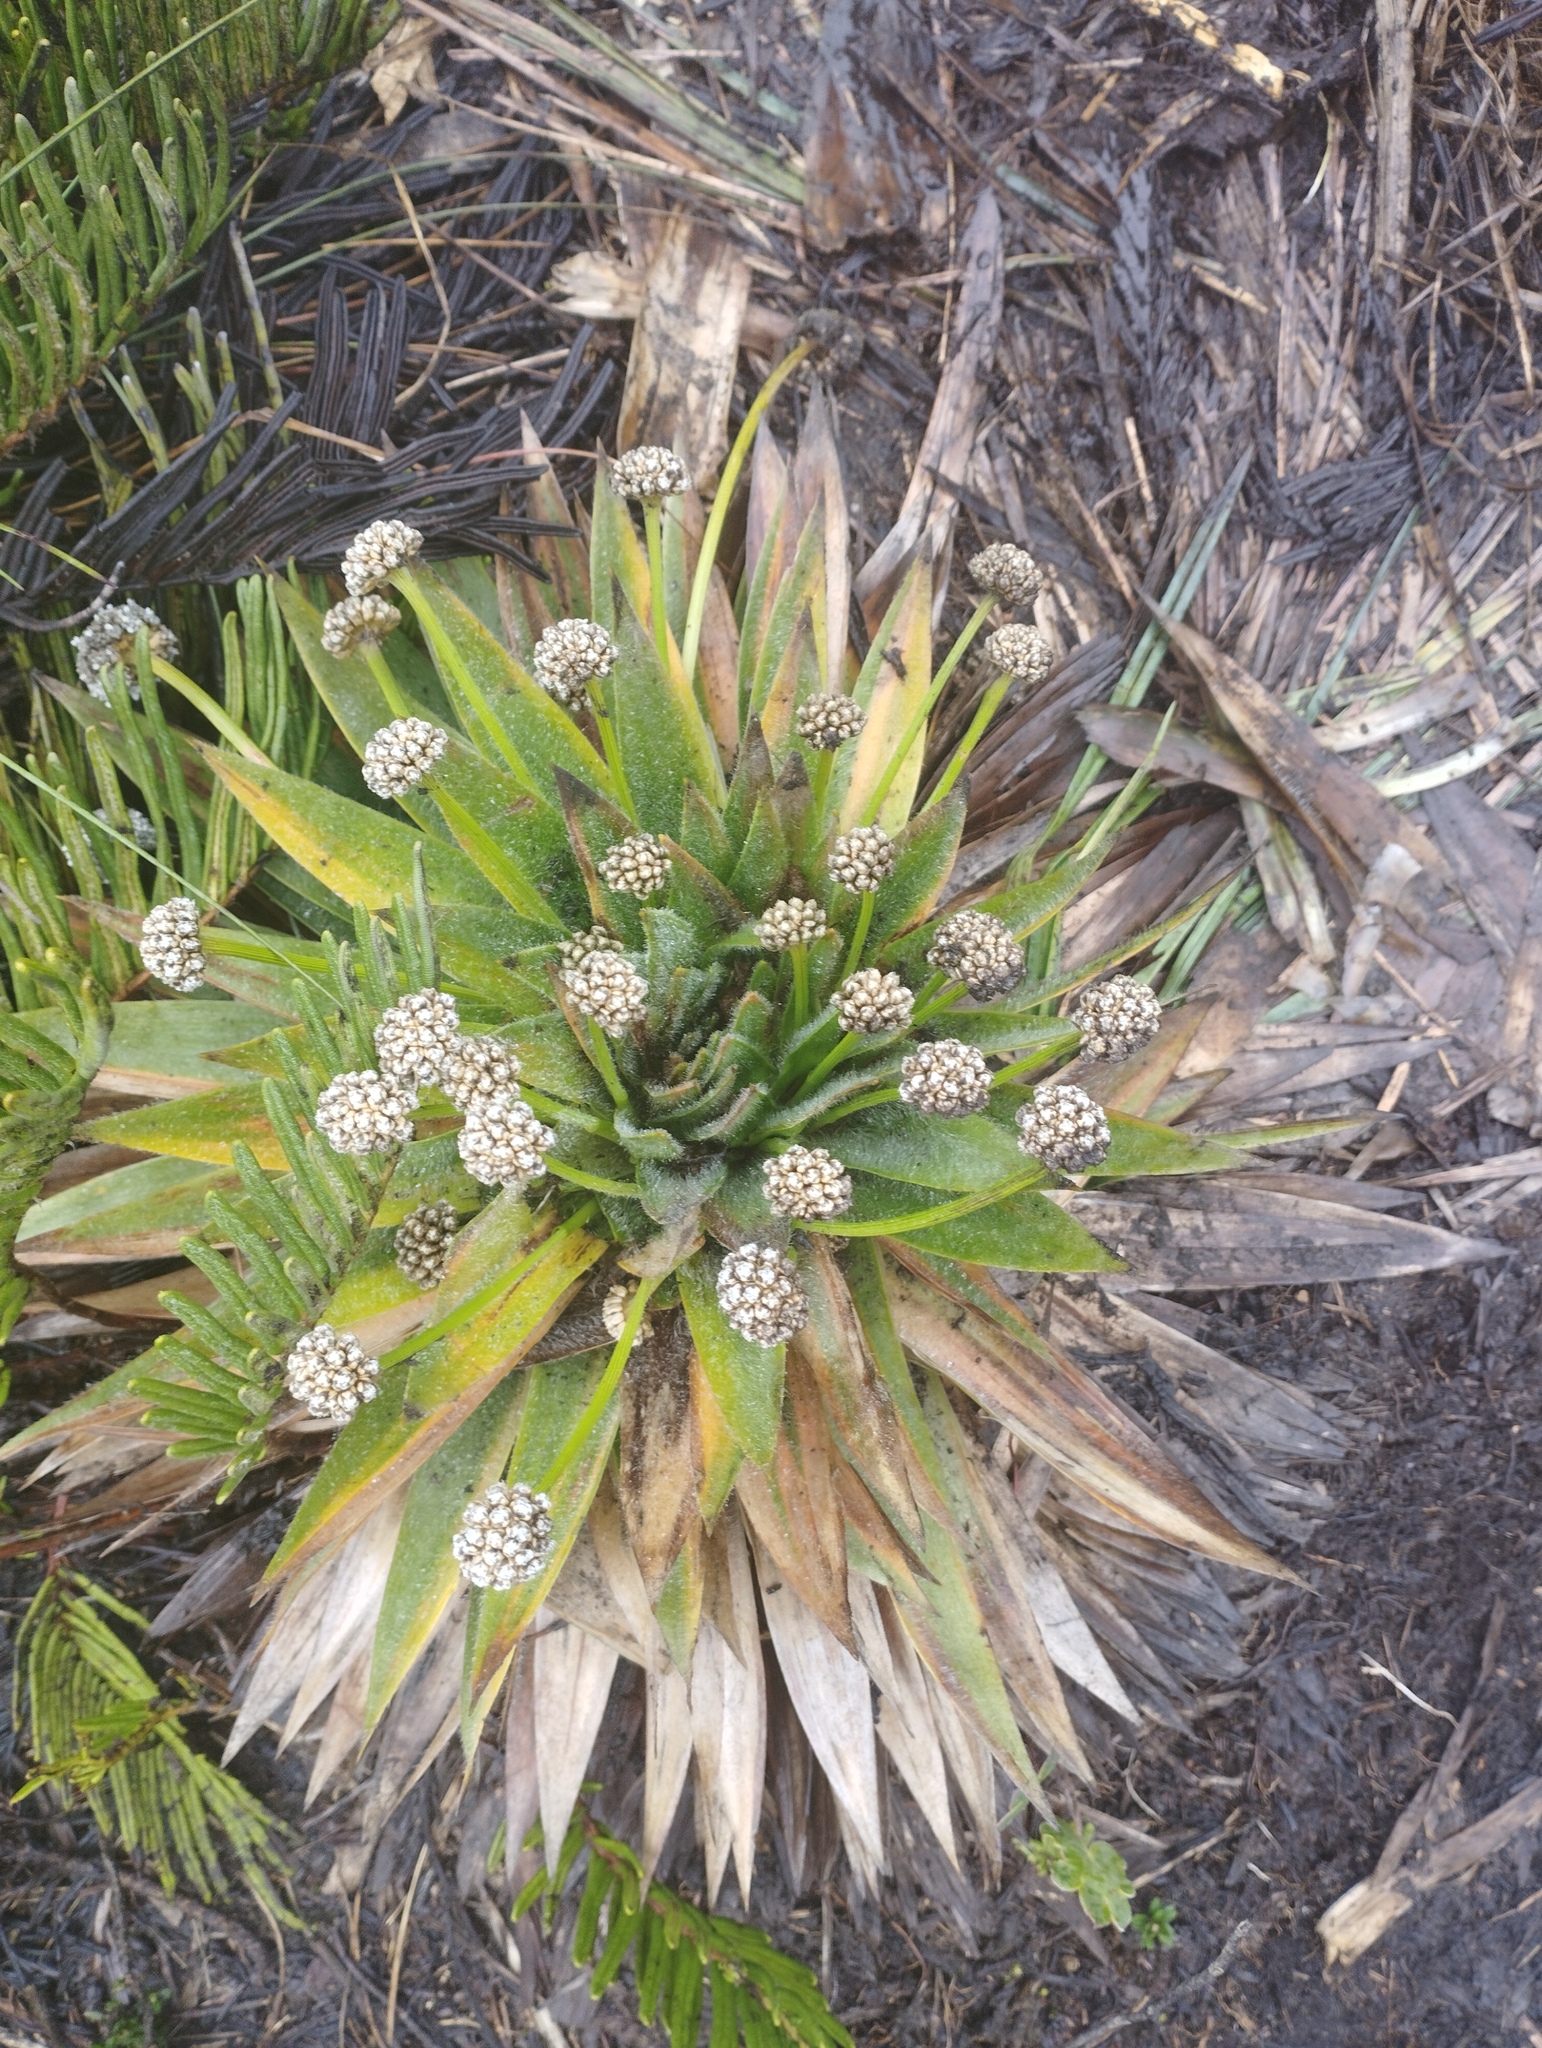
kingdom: Plantae
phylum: Tracheophyta
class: Liliopsida
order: Poales
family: Eriocaulaceae
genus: Paepalanthus
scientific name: Paepalanthus alpinus
